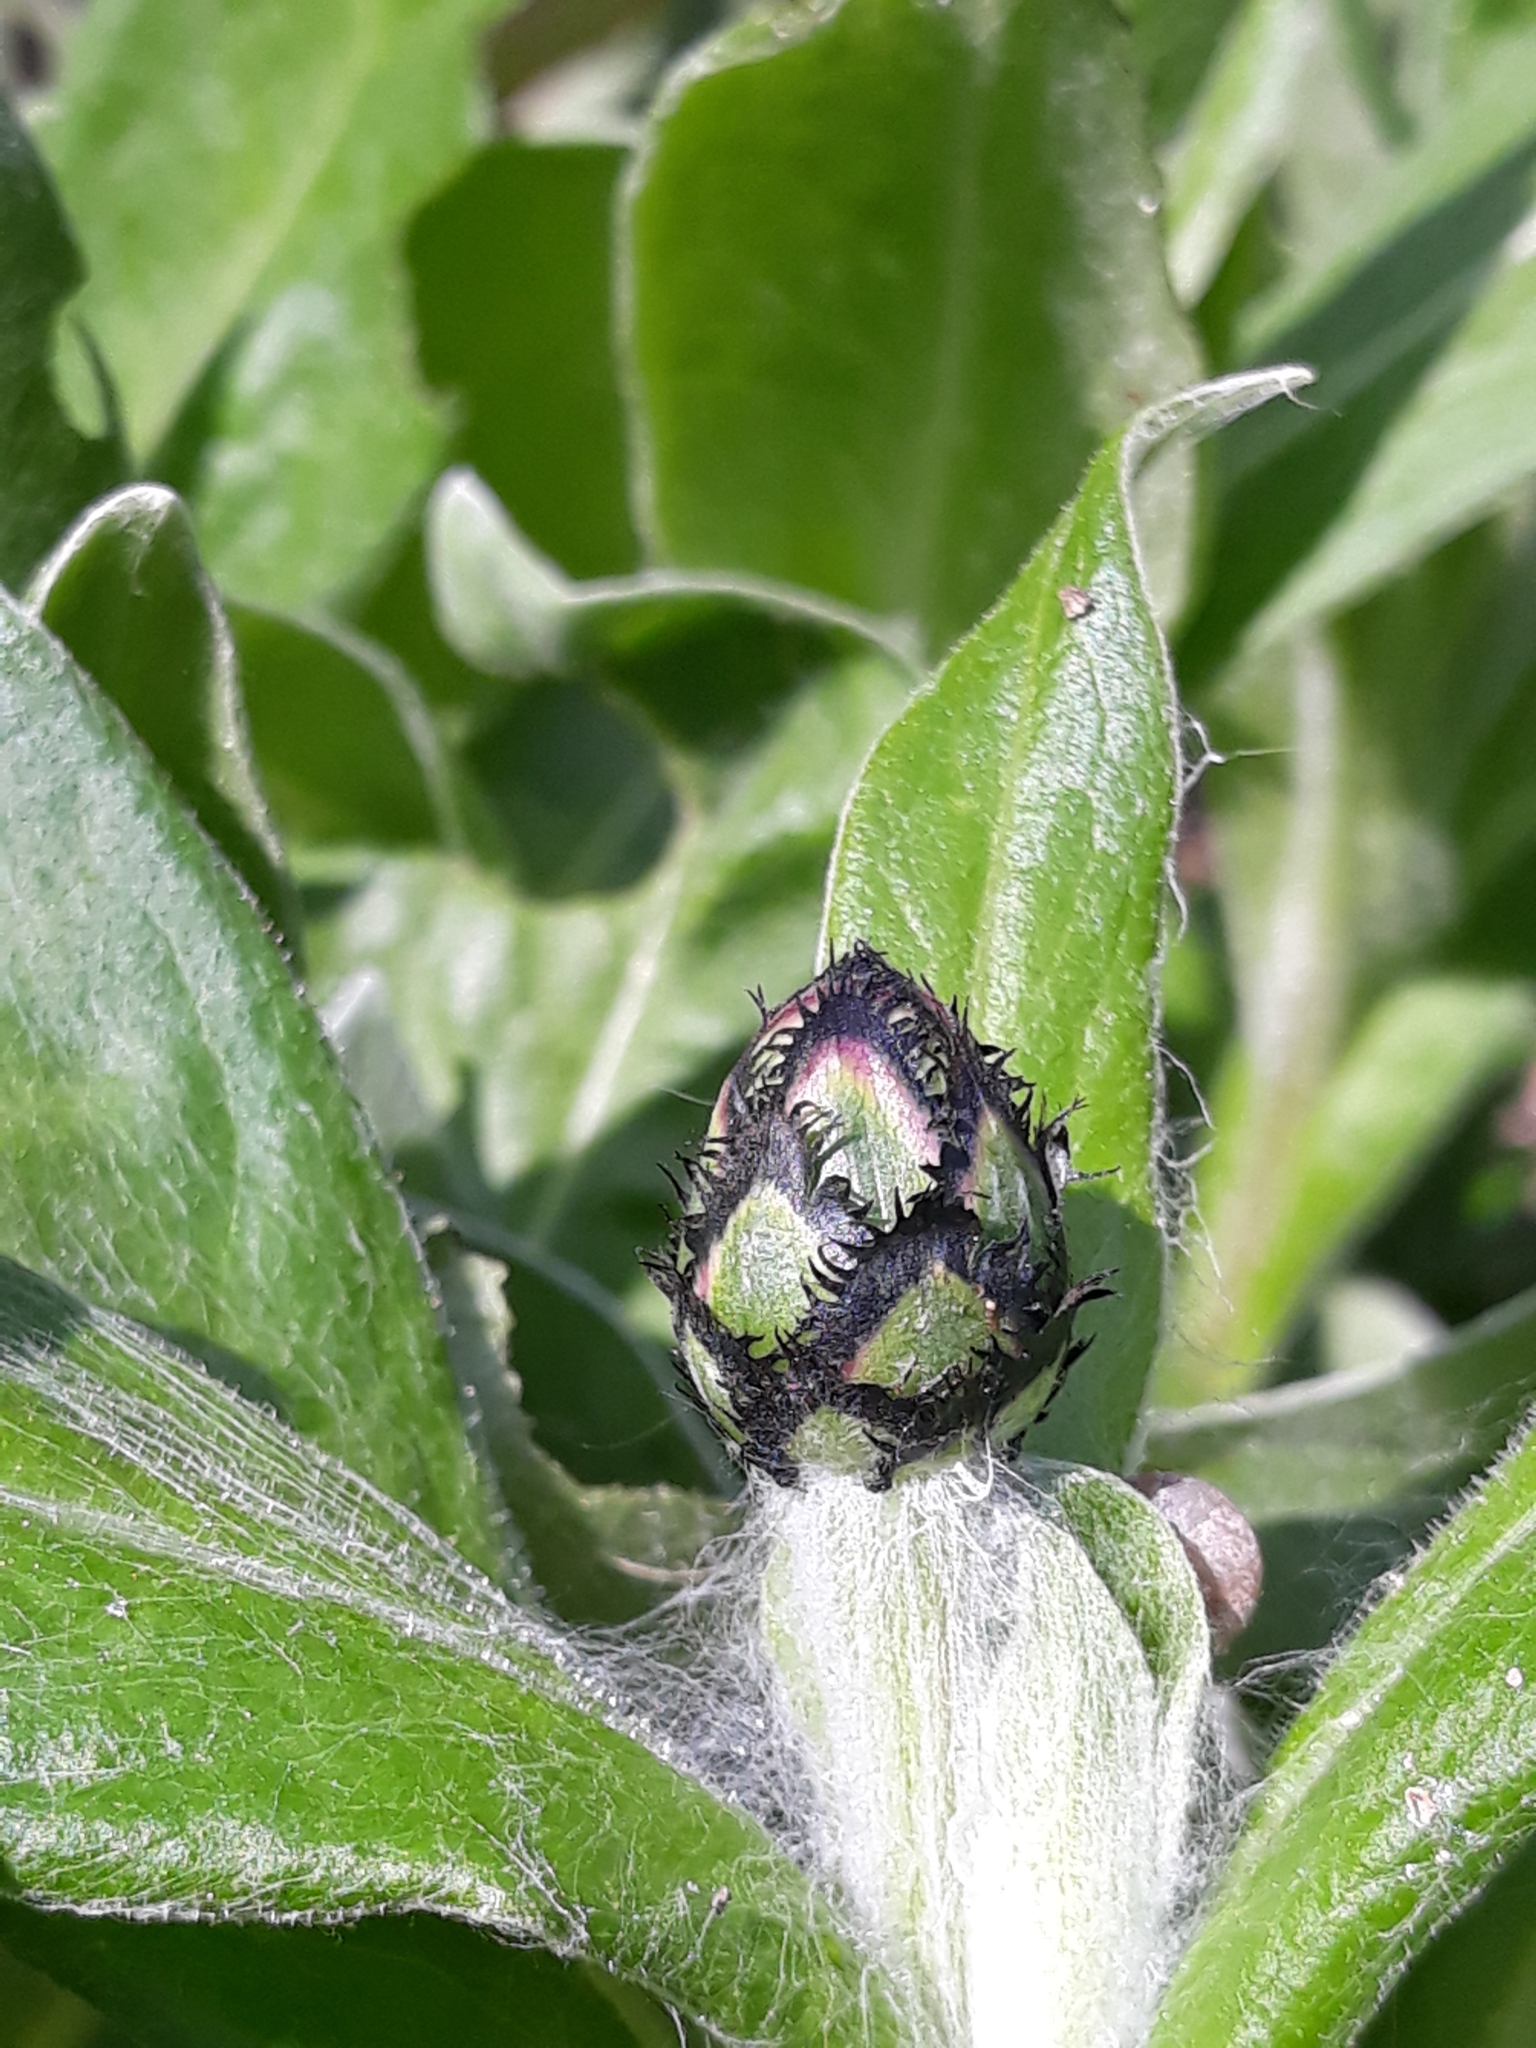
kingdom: Plantae
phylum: Tracheophyta
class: Magnoliopsida
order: Asterales
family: Asteraceae
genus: Centaurea
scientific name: Centaurea montana
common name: Perennial cornflower
